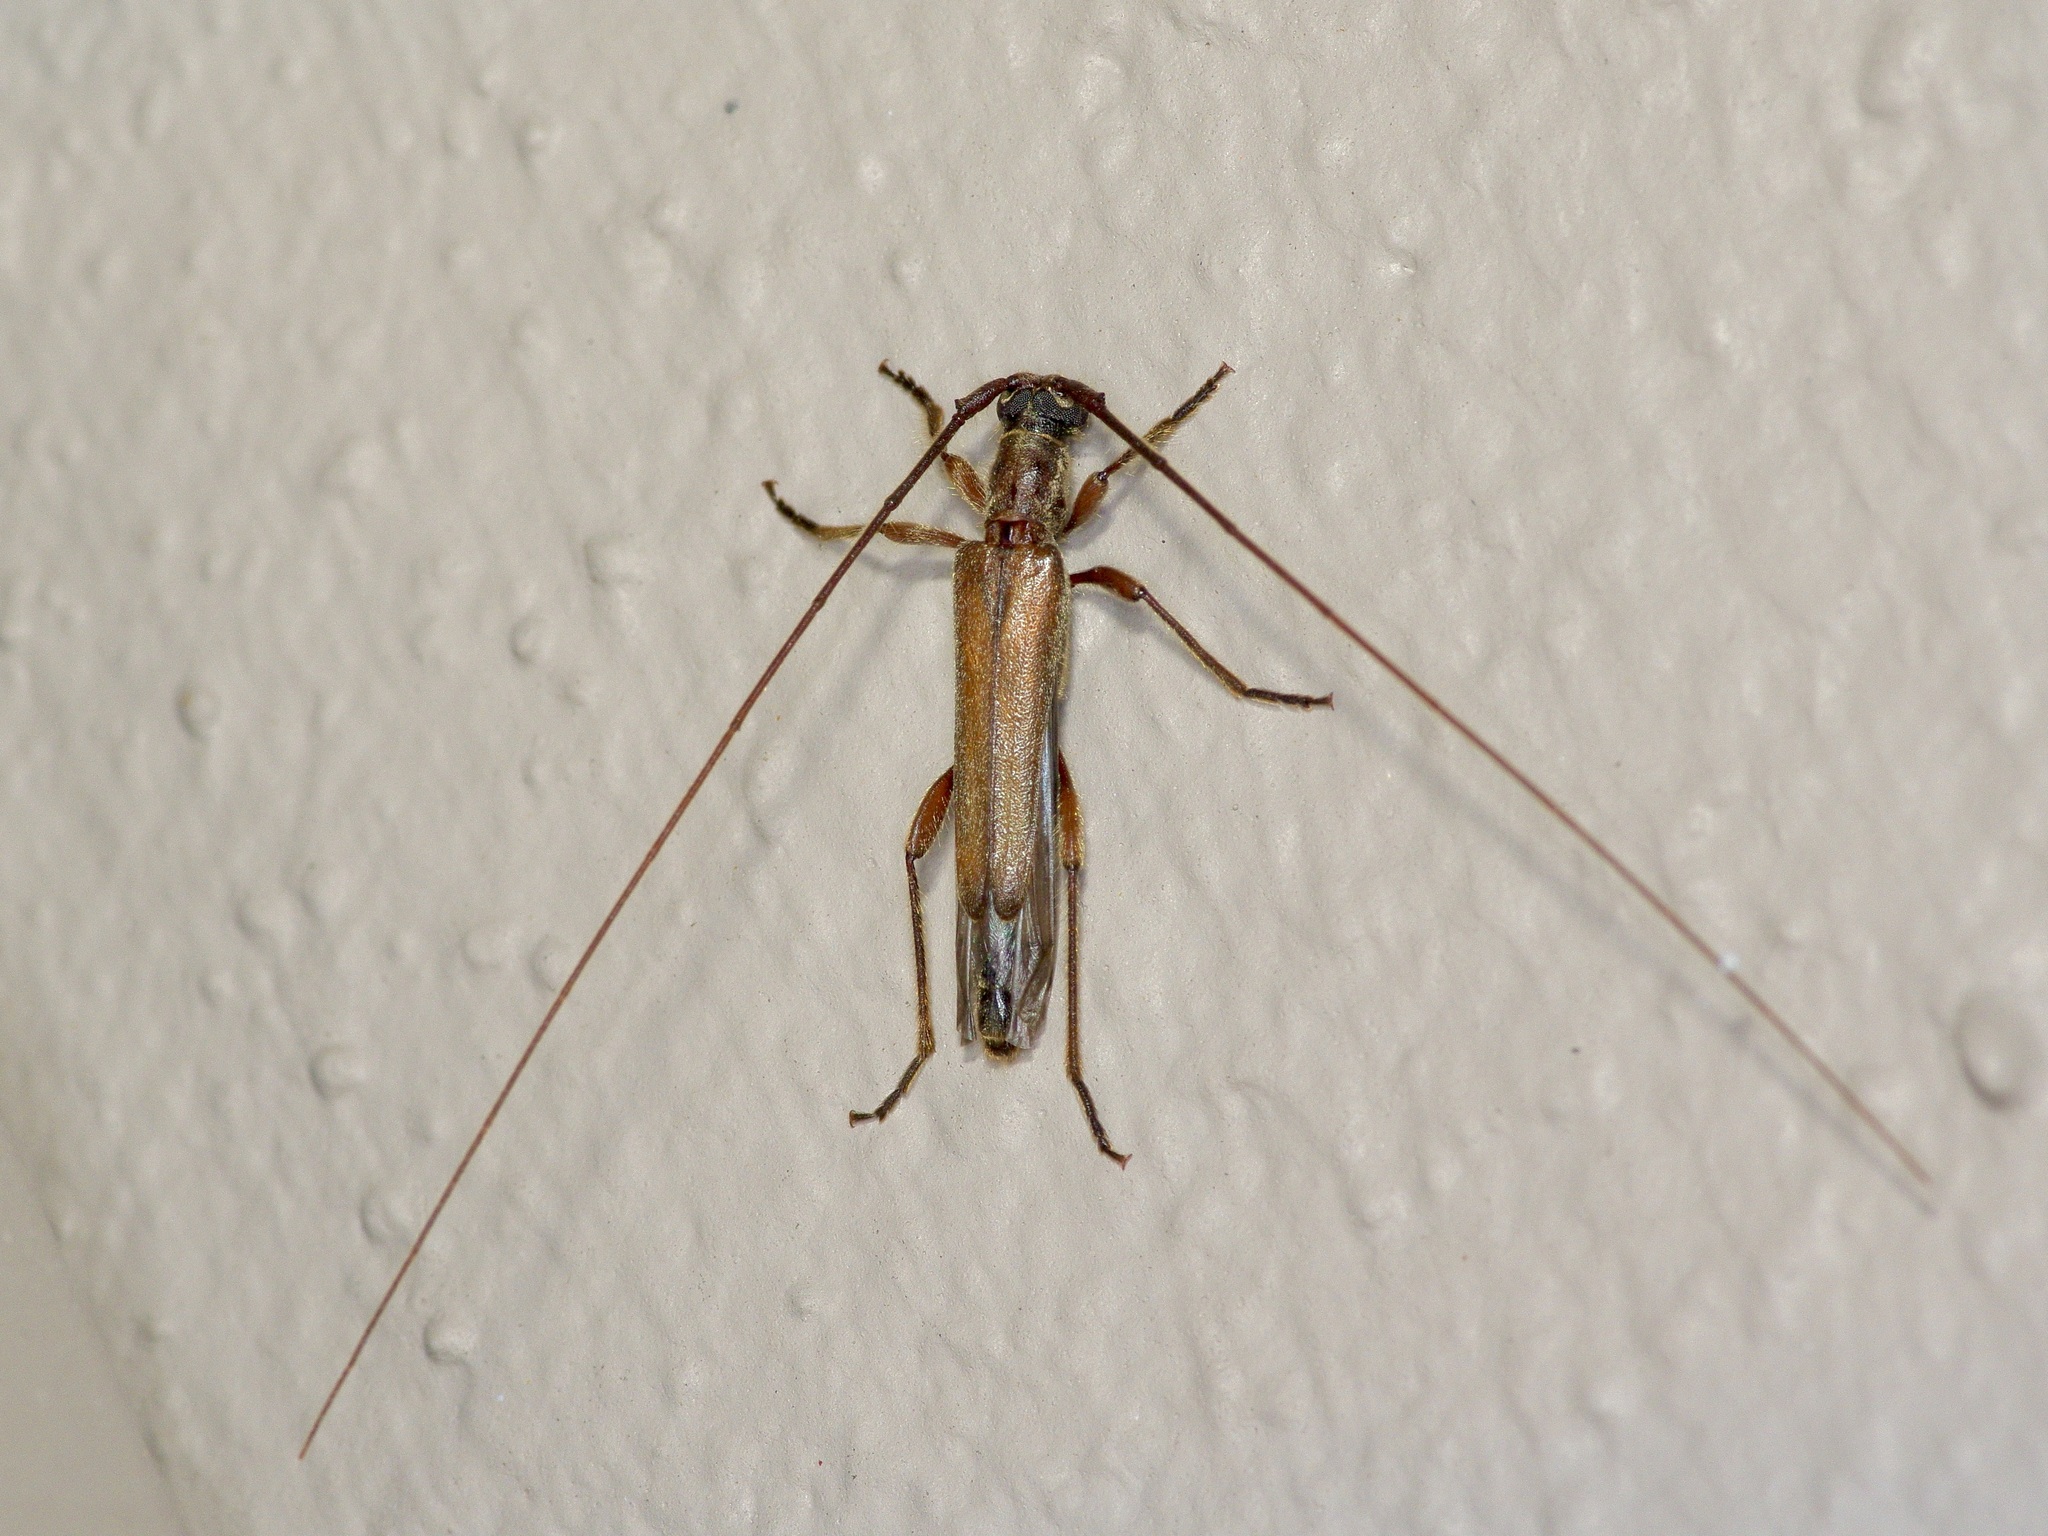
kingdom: Animalia
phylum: Arthropoda
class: Insecta
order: Coleoptera
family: Cerambycidae
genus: Styloxus
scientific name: Styloxus fulleri
